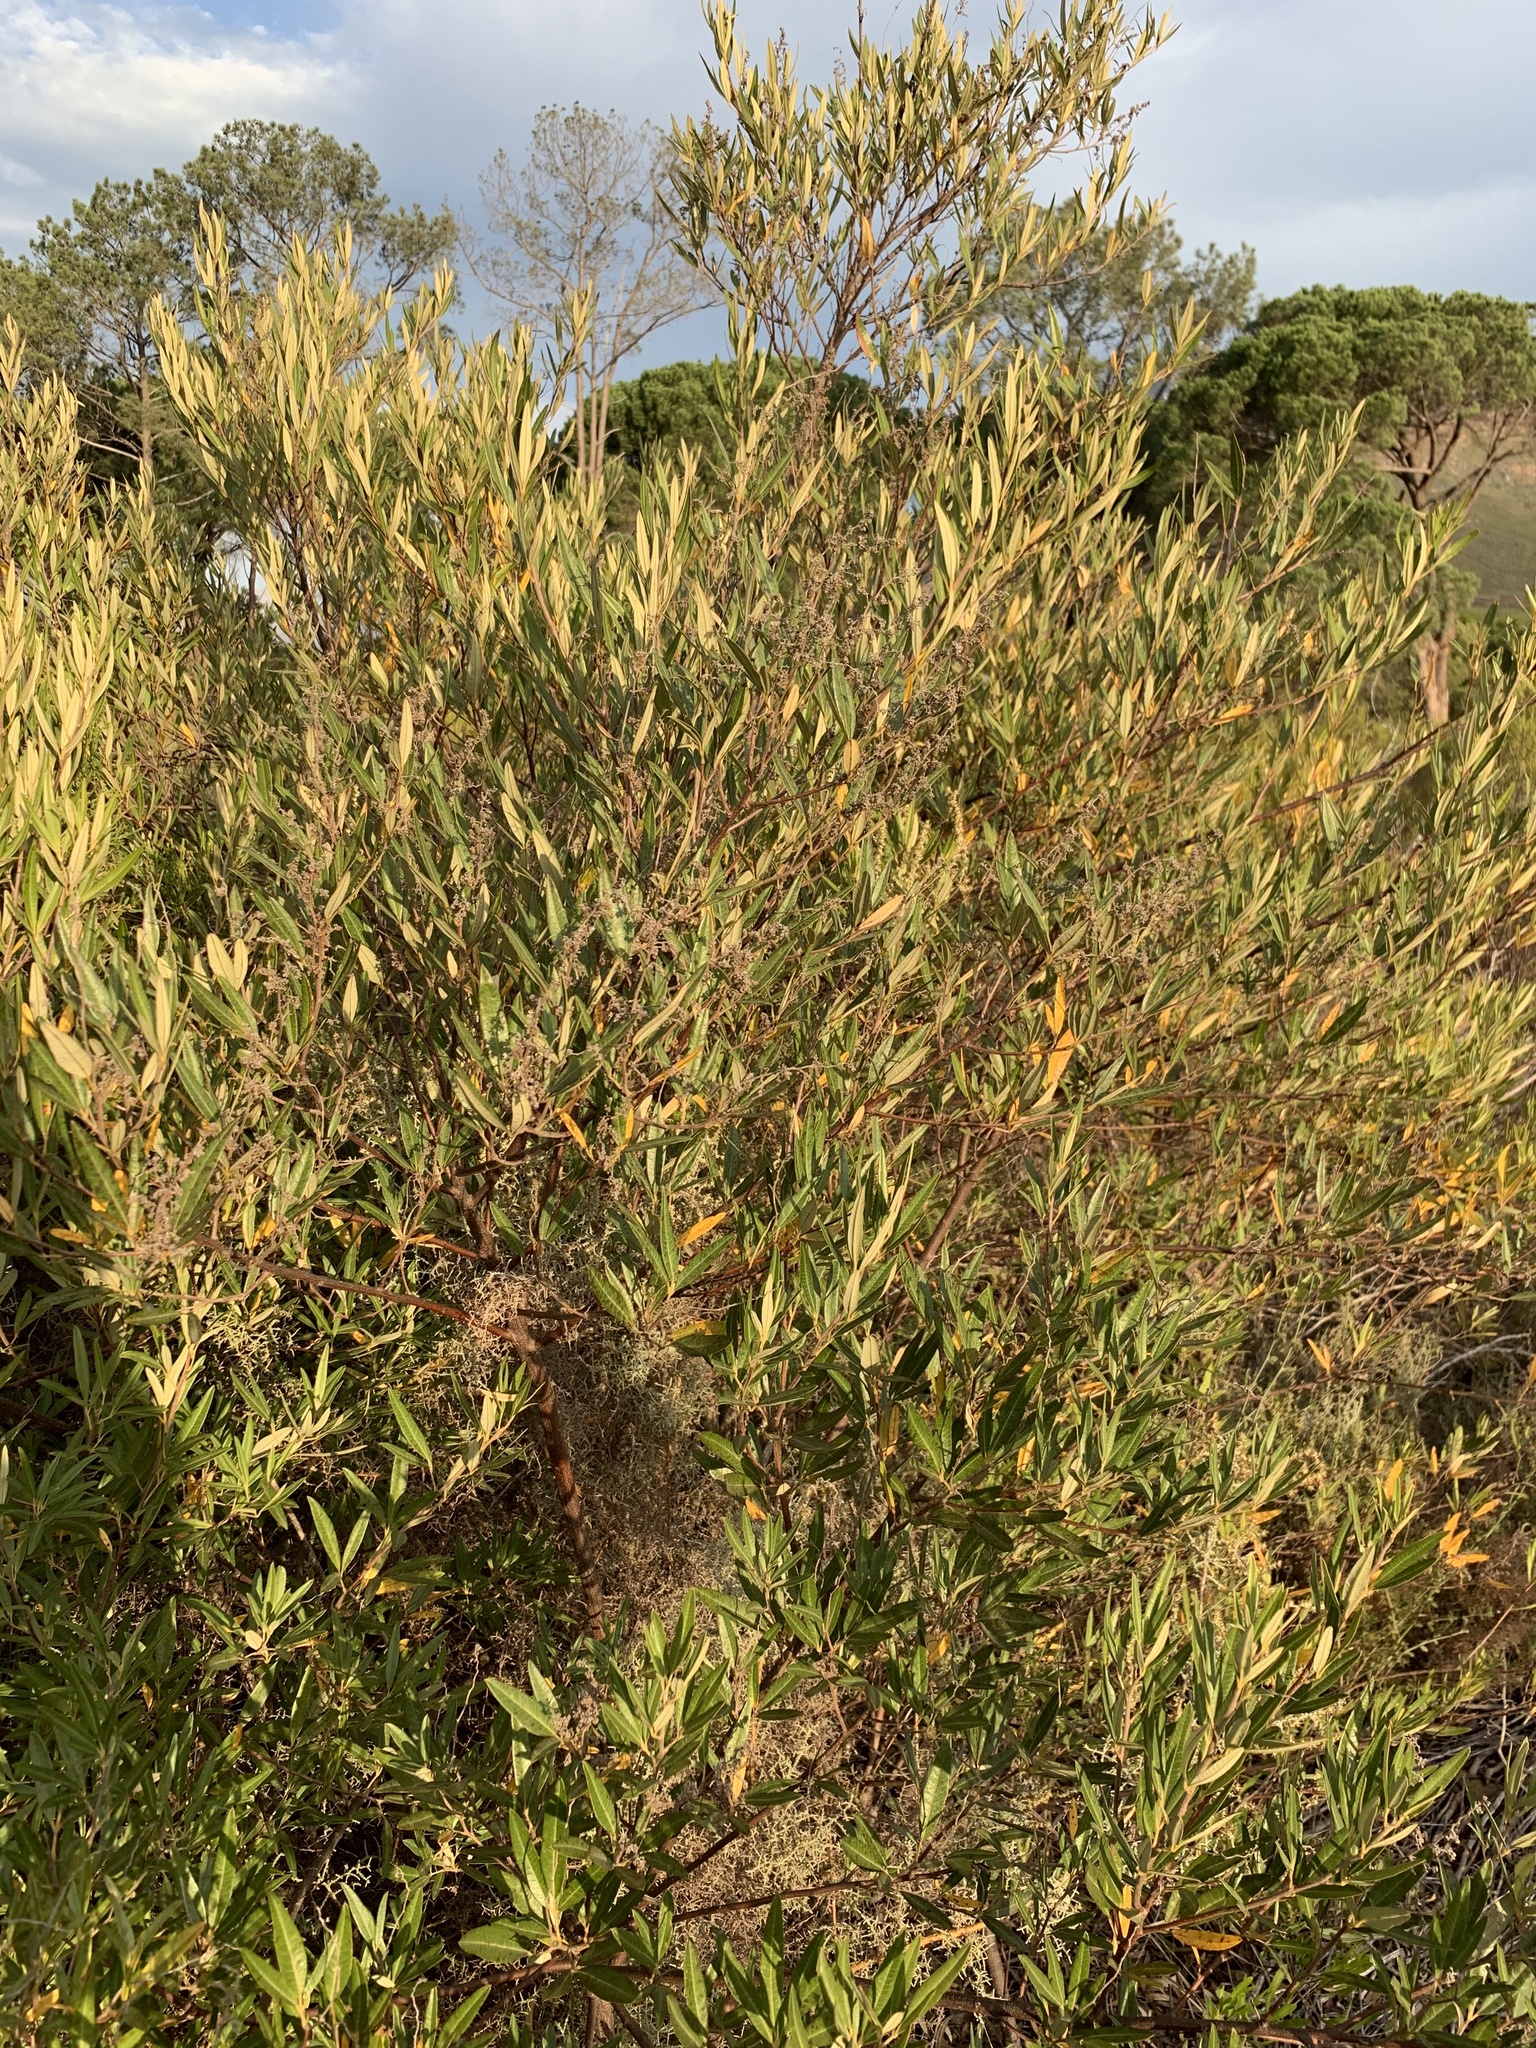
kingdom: Plantae
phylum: Tracheophyta
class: Magnoliopsida
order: Sapindales
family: Anacardiaceae
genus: Searsia
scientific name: Searsia angustifolia
